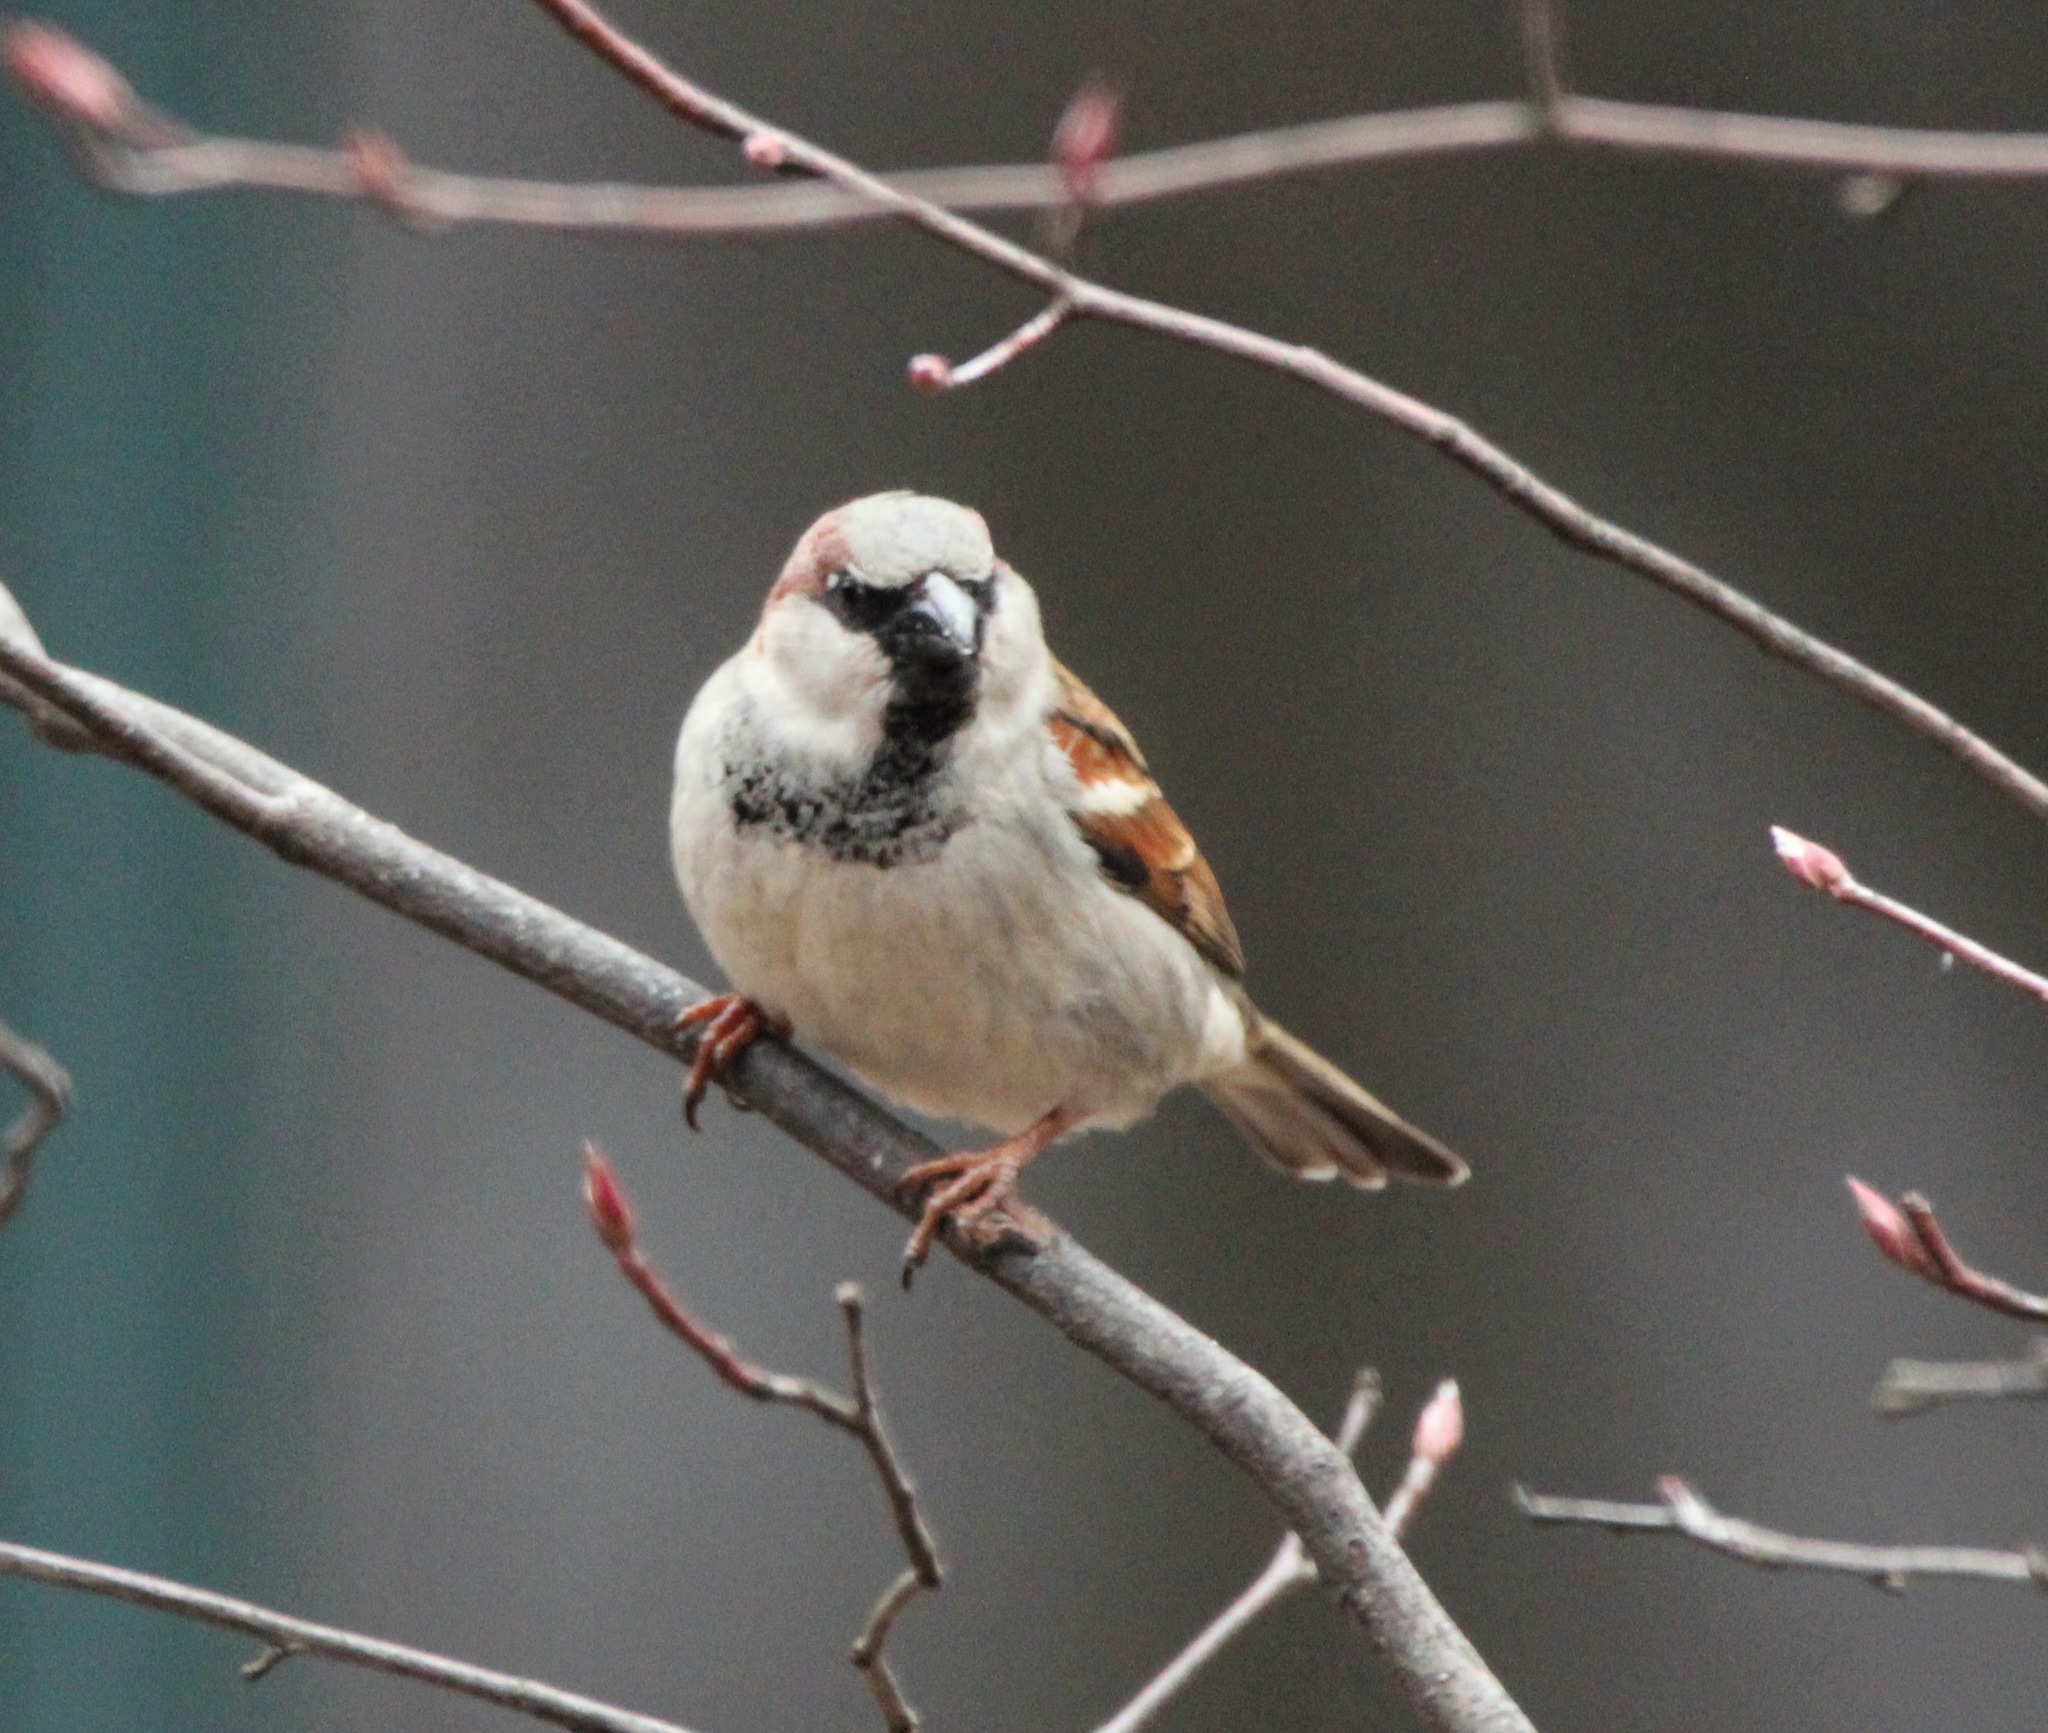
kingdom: Animalia
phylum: Chordata
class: Aves
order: Passeriformes
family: Passeridae
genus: Passer
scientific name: Passer domesticus
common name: House sparrow
